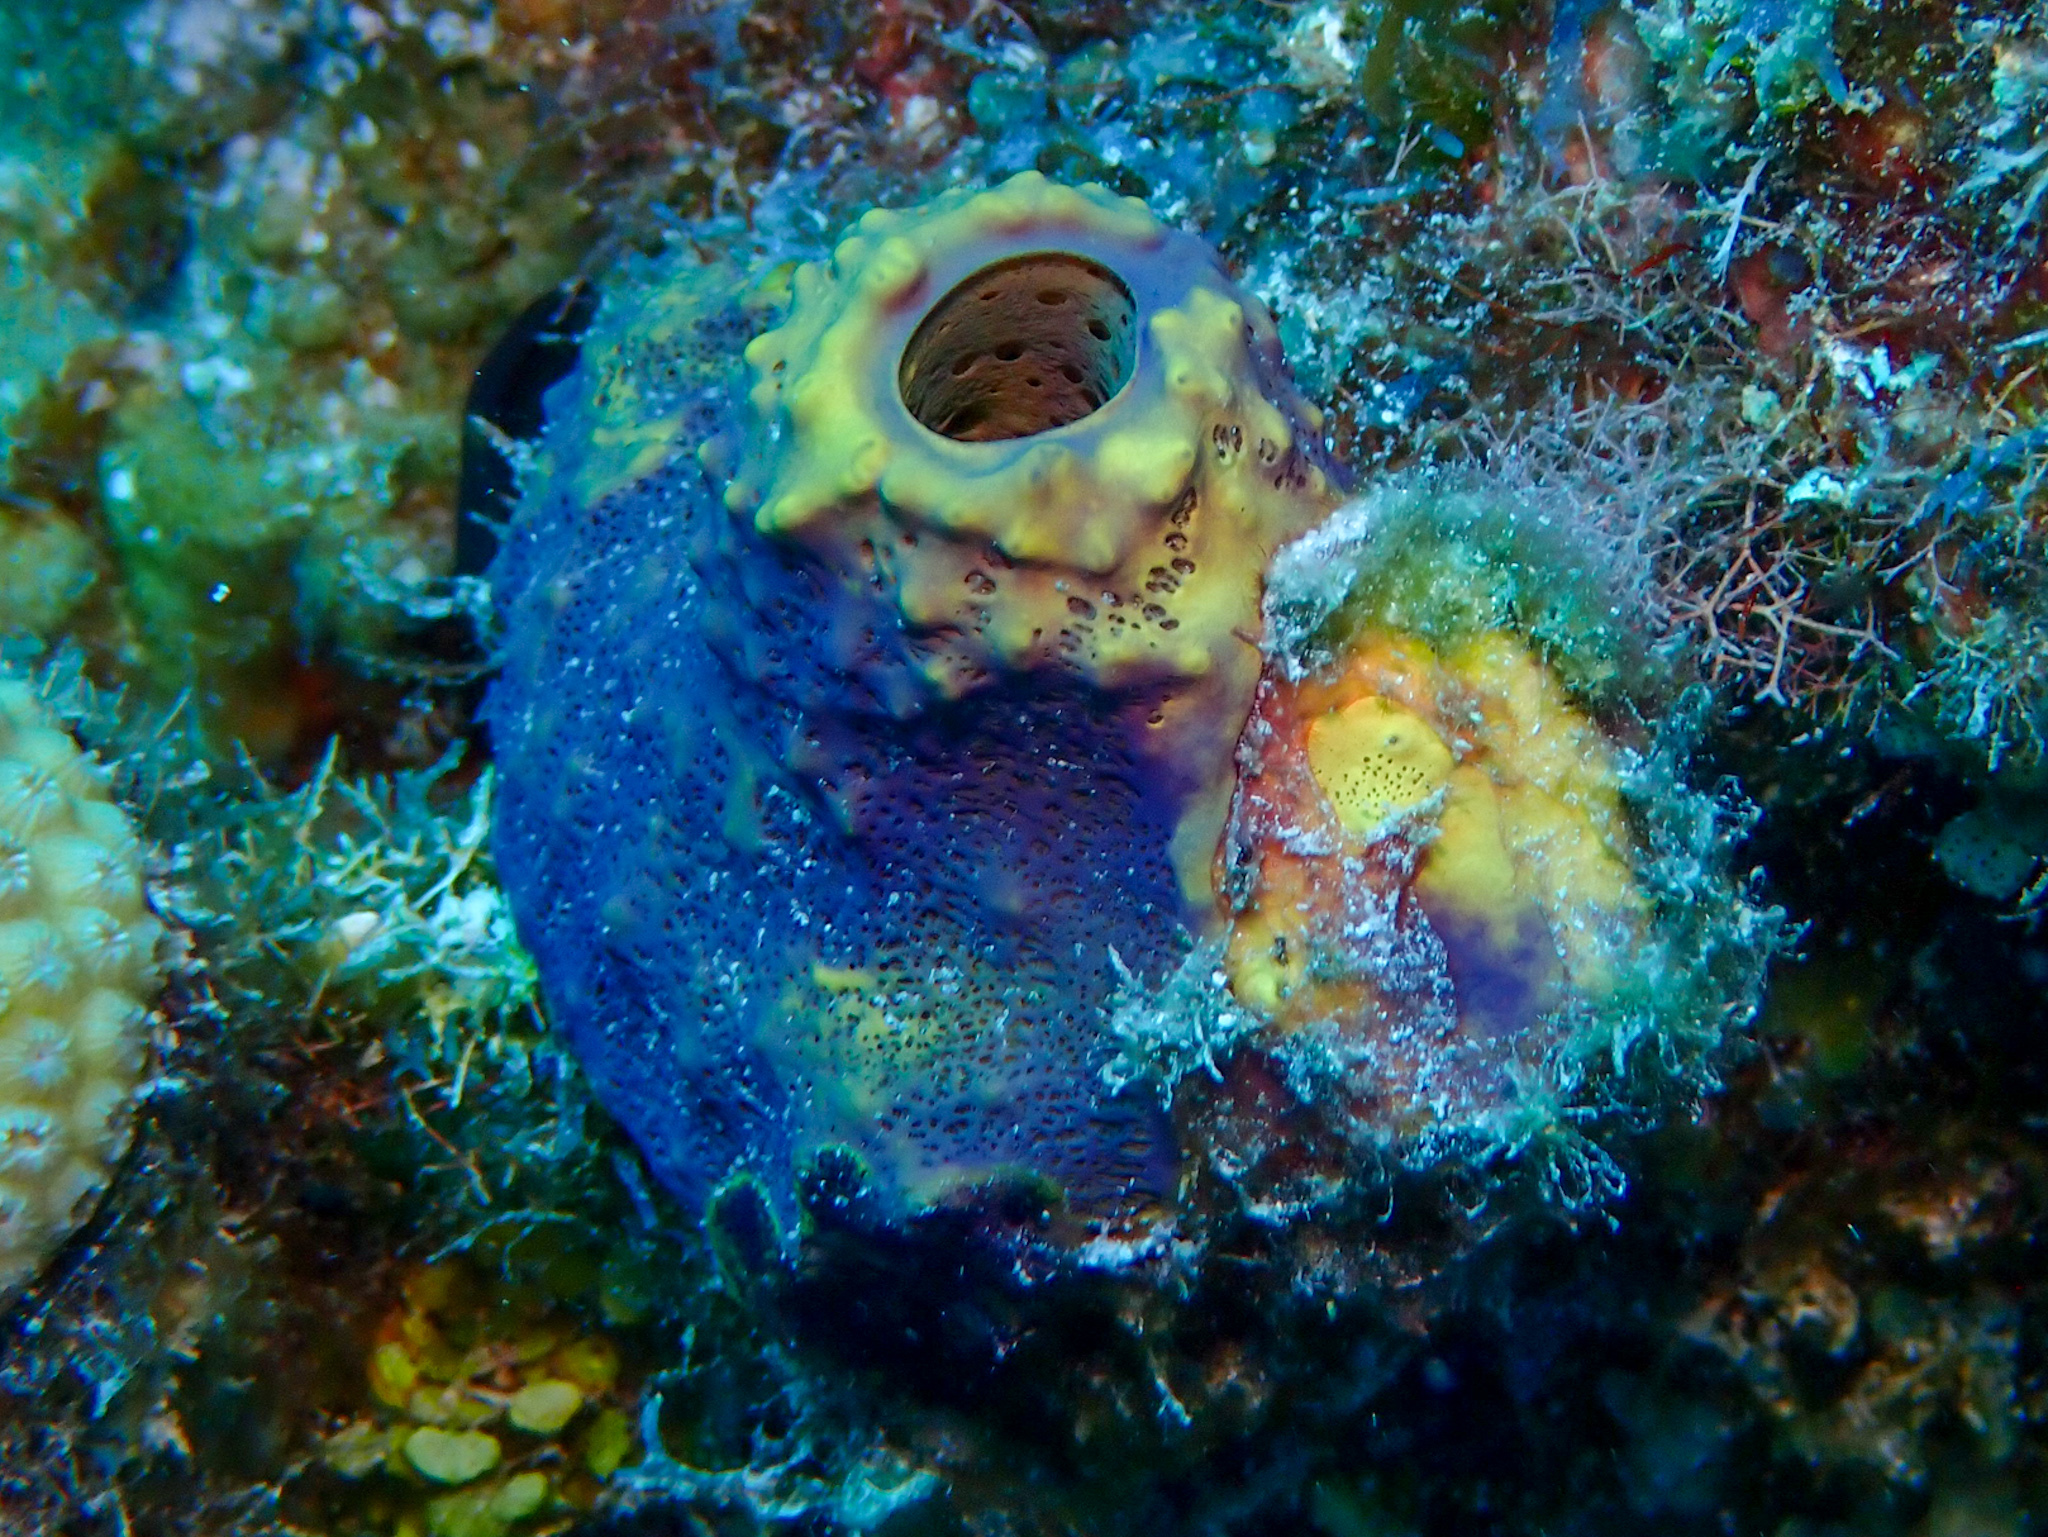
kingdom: Animalia
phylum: Porifera
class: Demospongiae
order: Verongiida
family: Aplysinidae
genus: Aiolochroia
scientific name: Aiolochroia crassa
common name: Branching tube sponge
